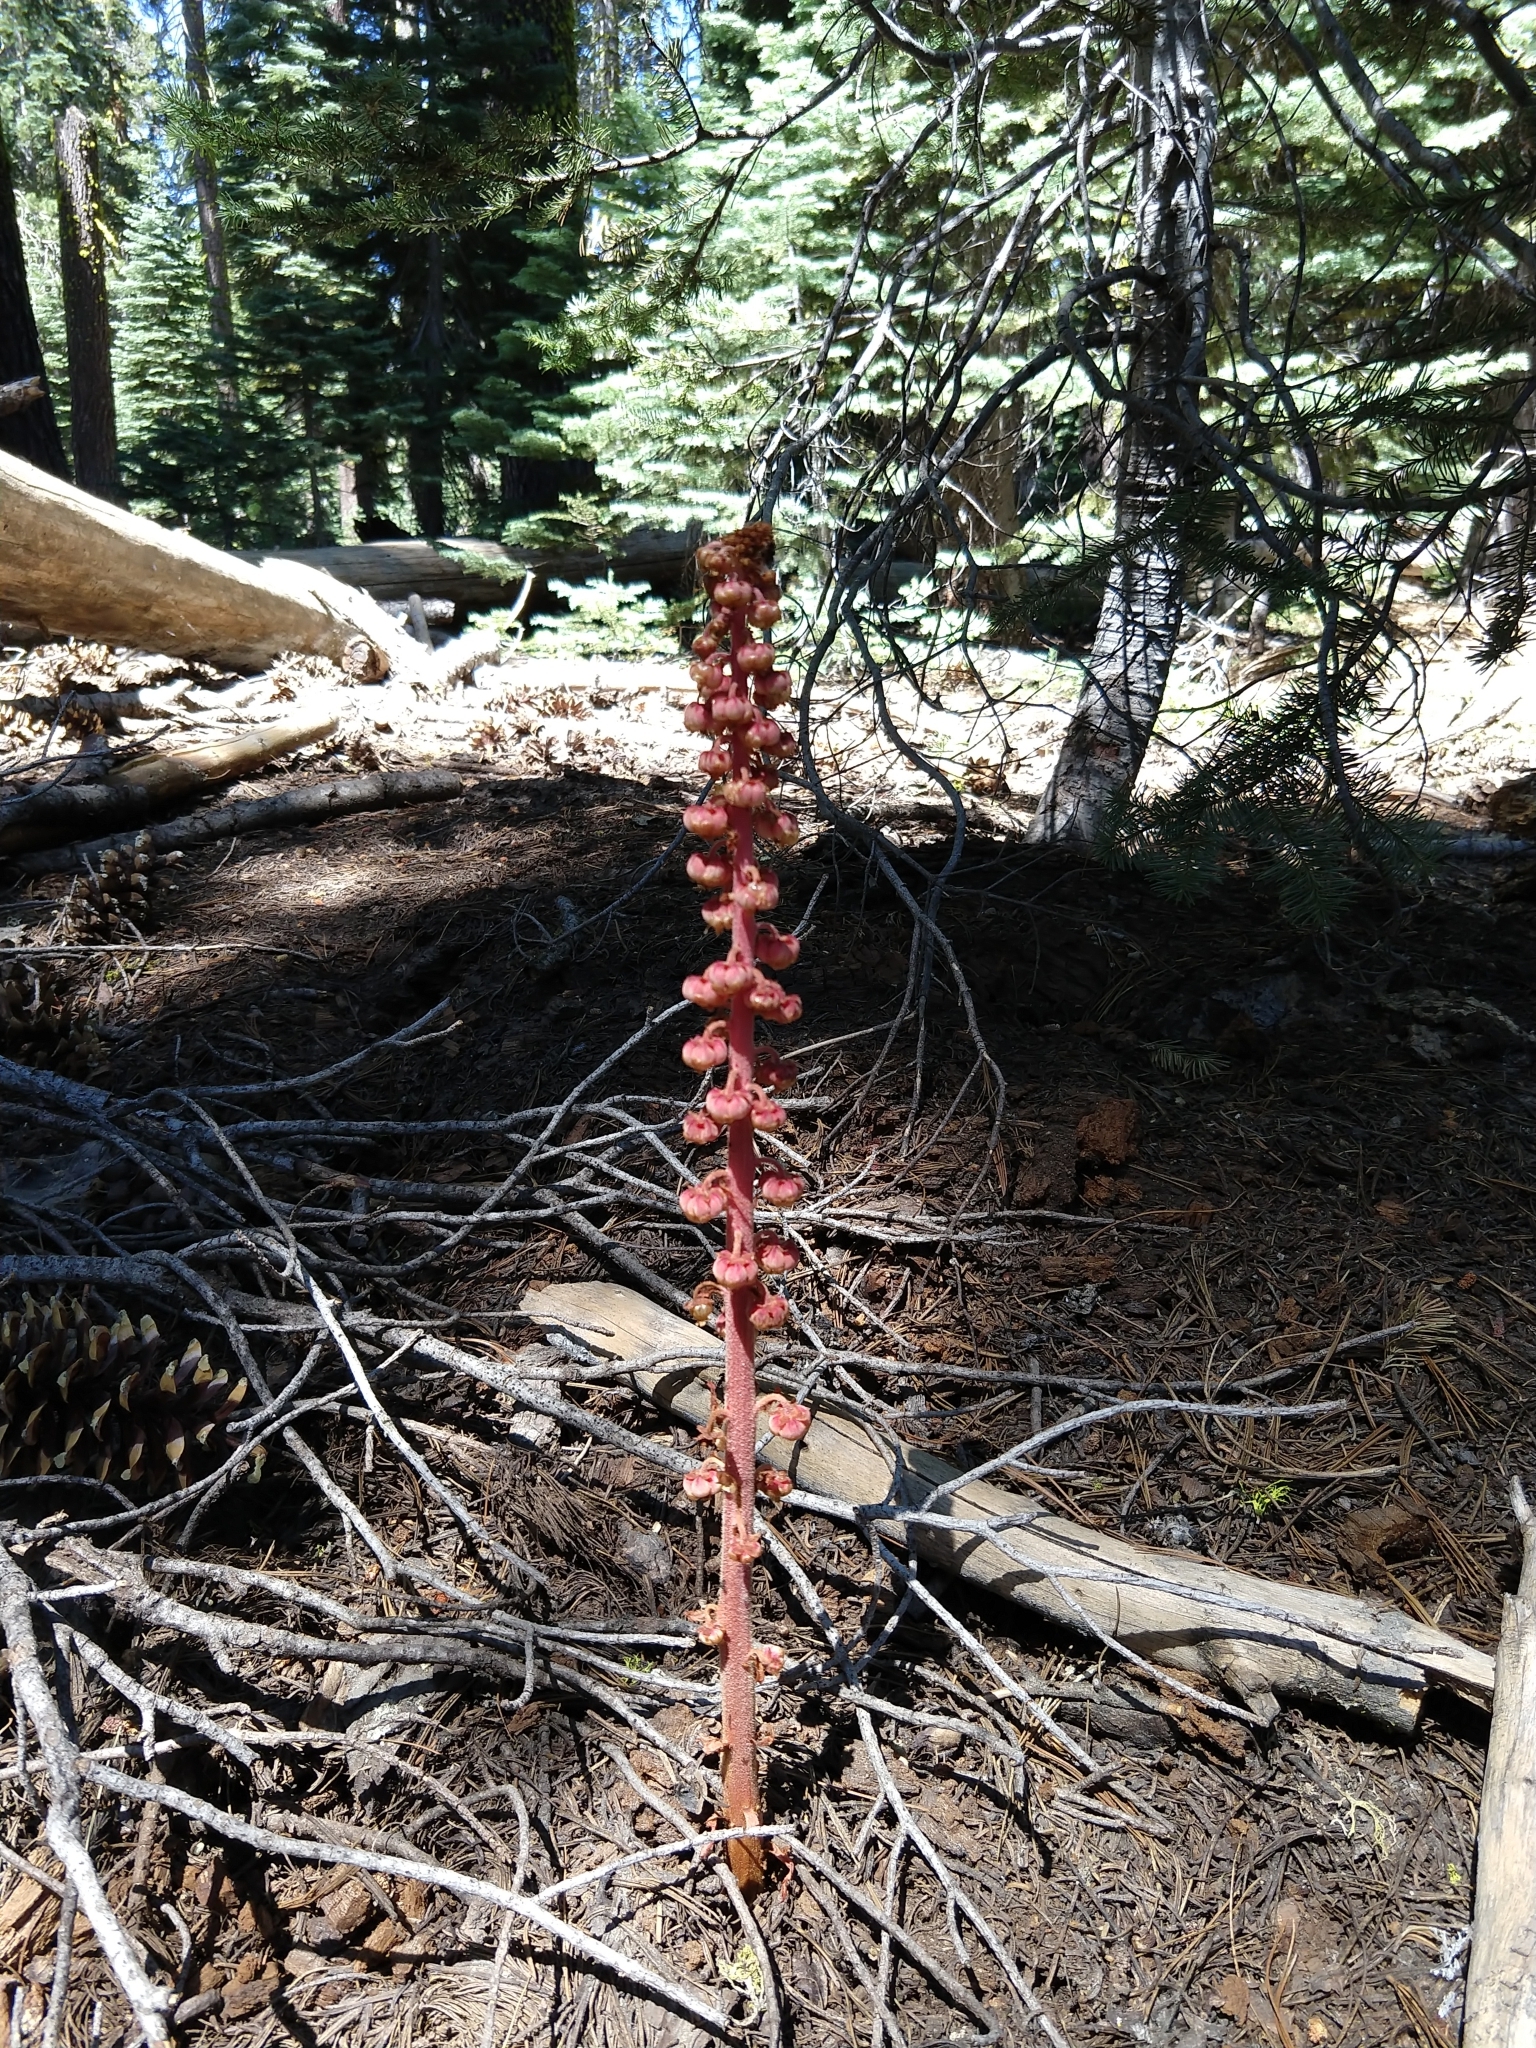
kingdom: Plantae
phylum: Tracheophyta
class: Magnoliopsida
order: Ericales
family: Ericaceae
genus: Pterospora
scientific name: Pterospora andromedea
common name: Giant bird's-nest
